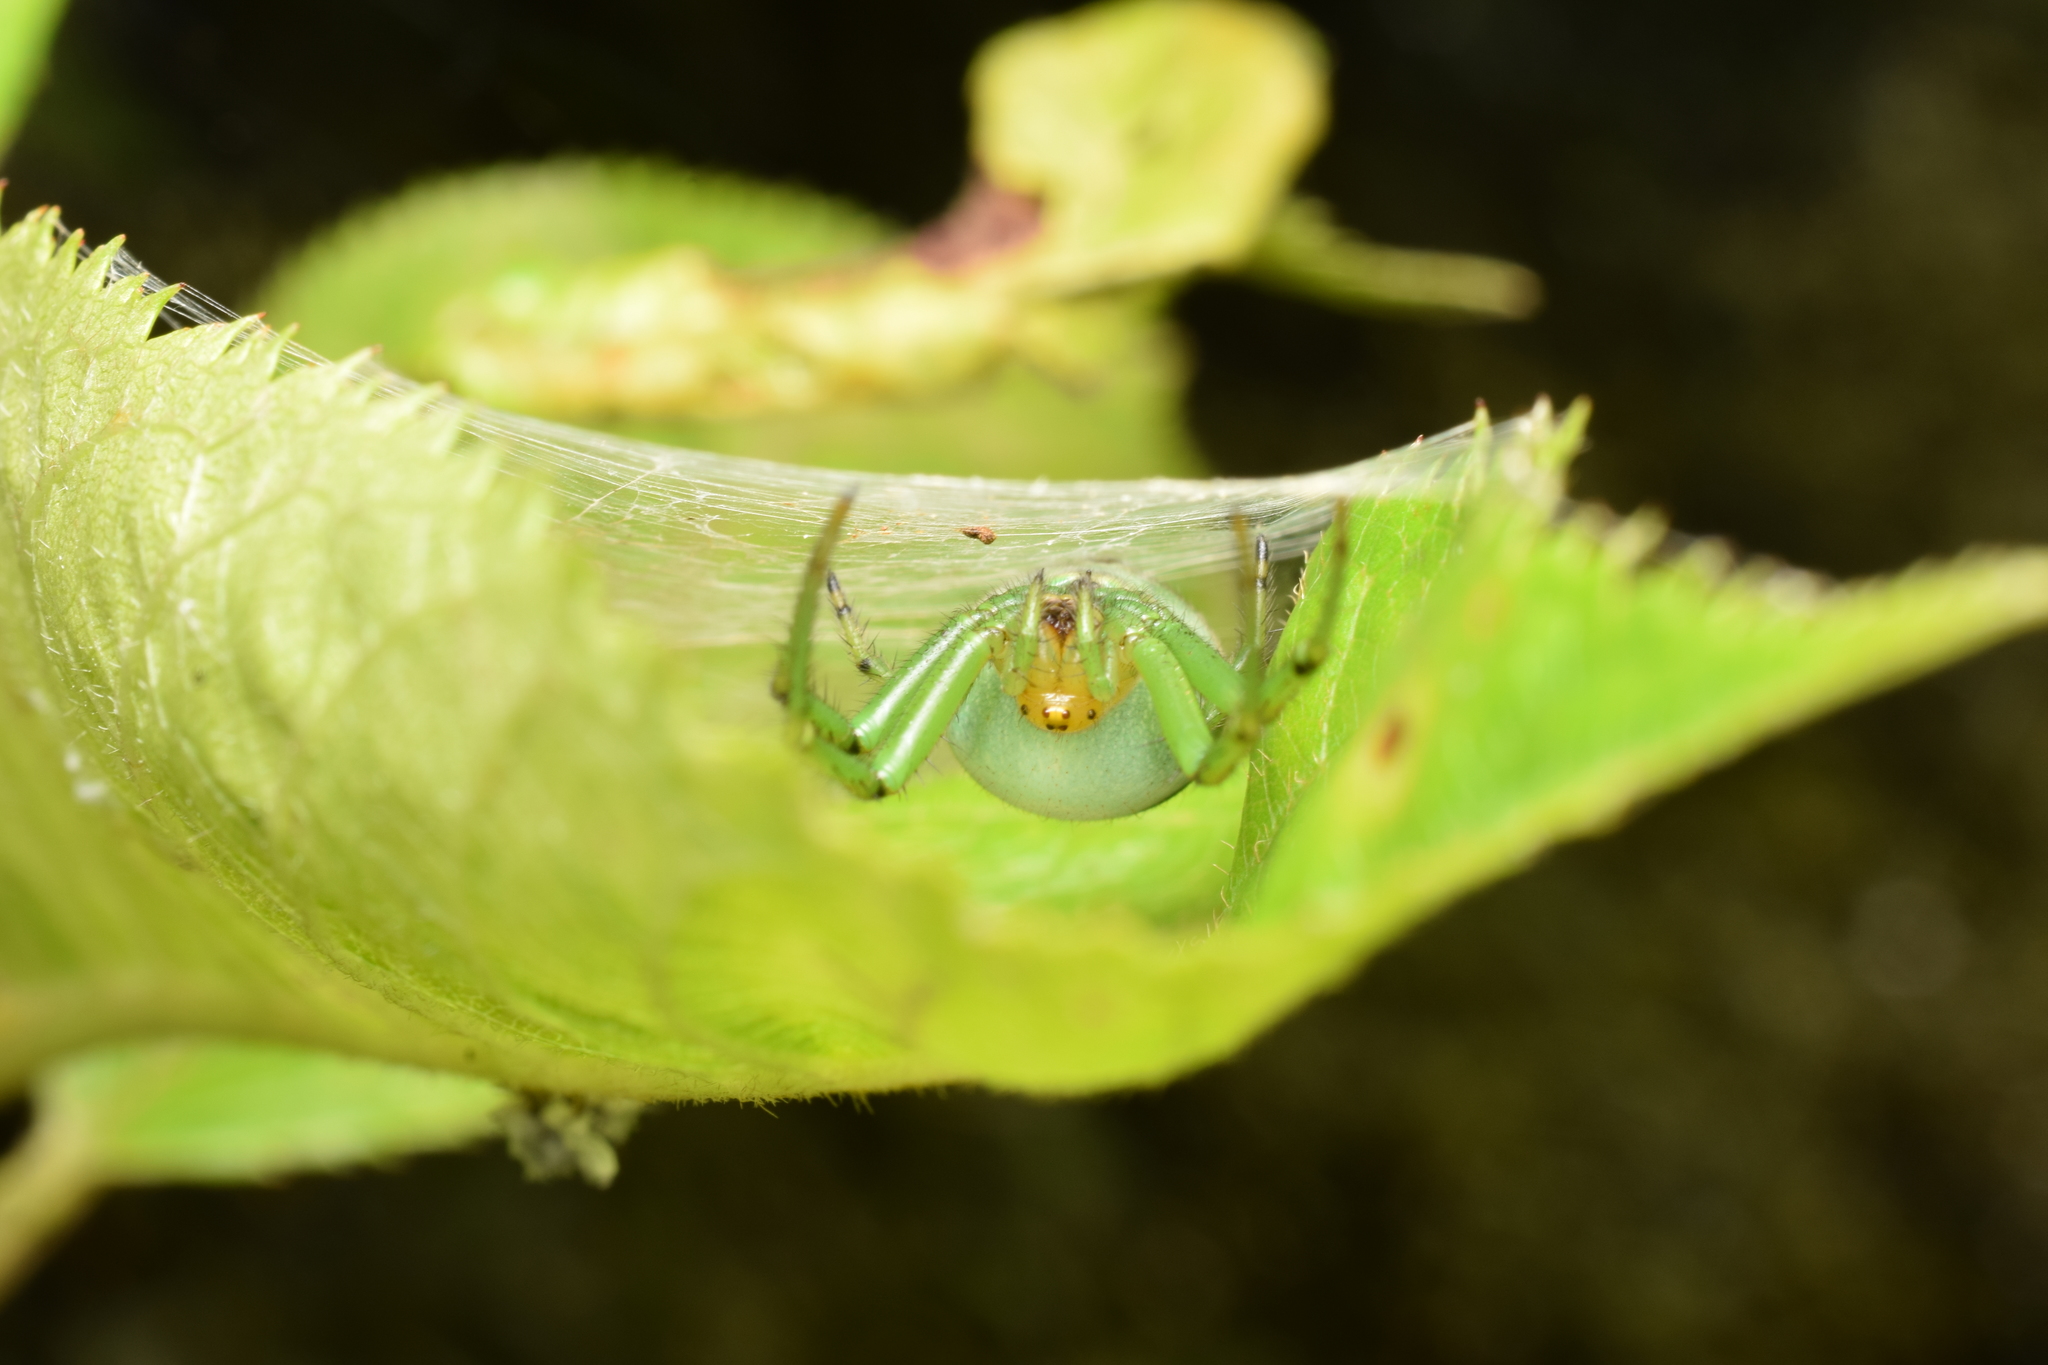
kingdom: Animalia
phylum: Arthropoda
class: Arachnida
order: Araneae
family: Araneidae
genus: Aoaraneus
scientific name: Aoaraneus pentagrammicus
